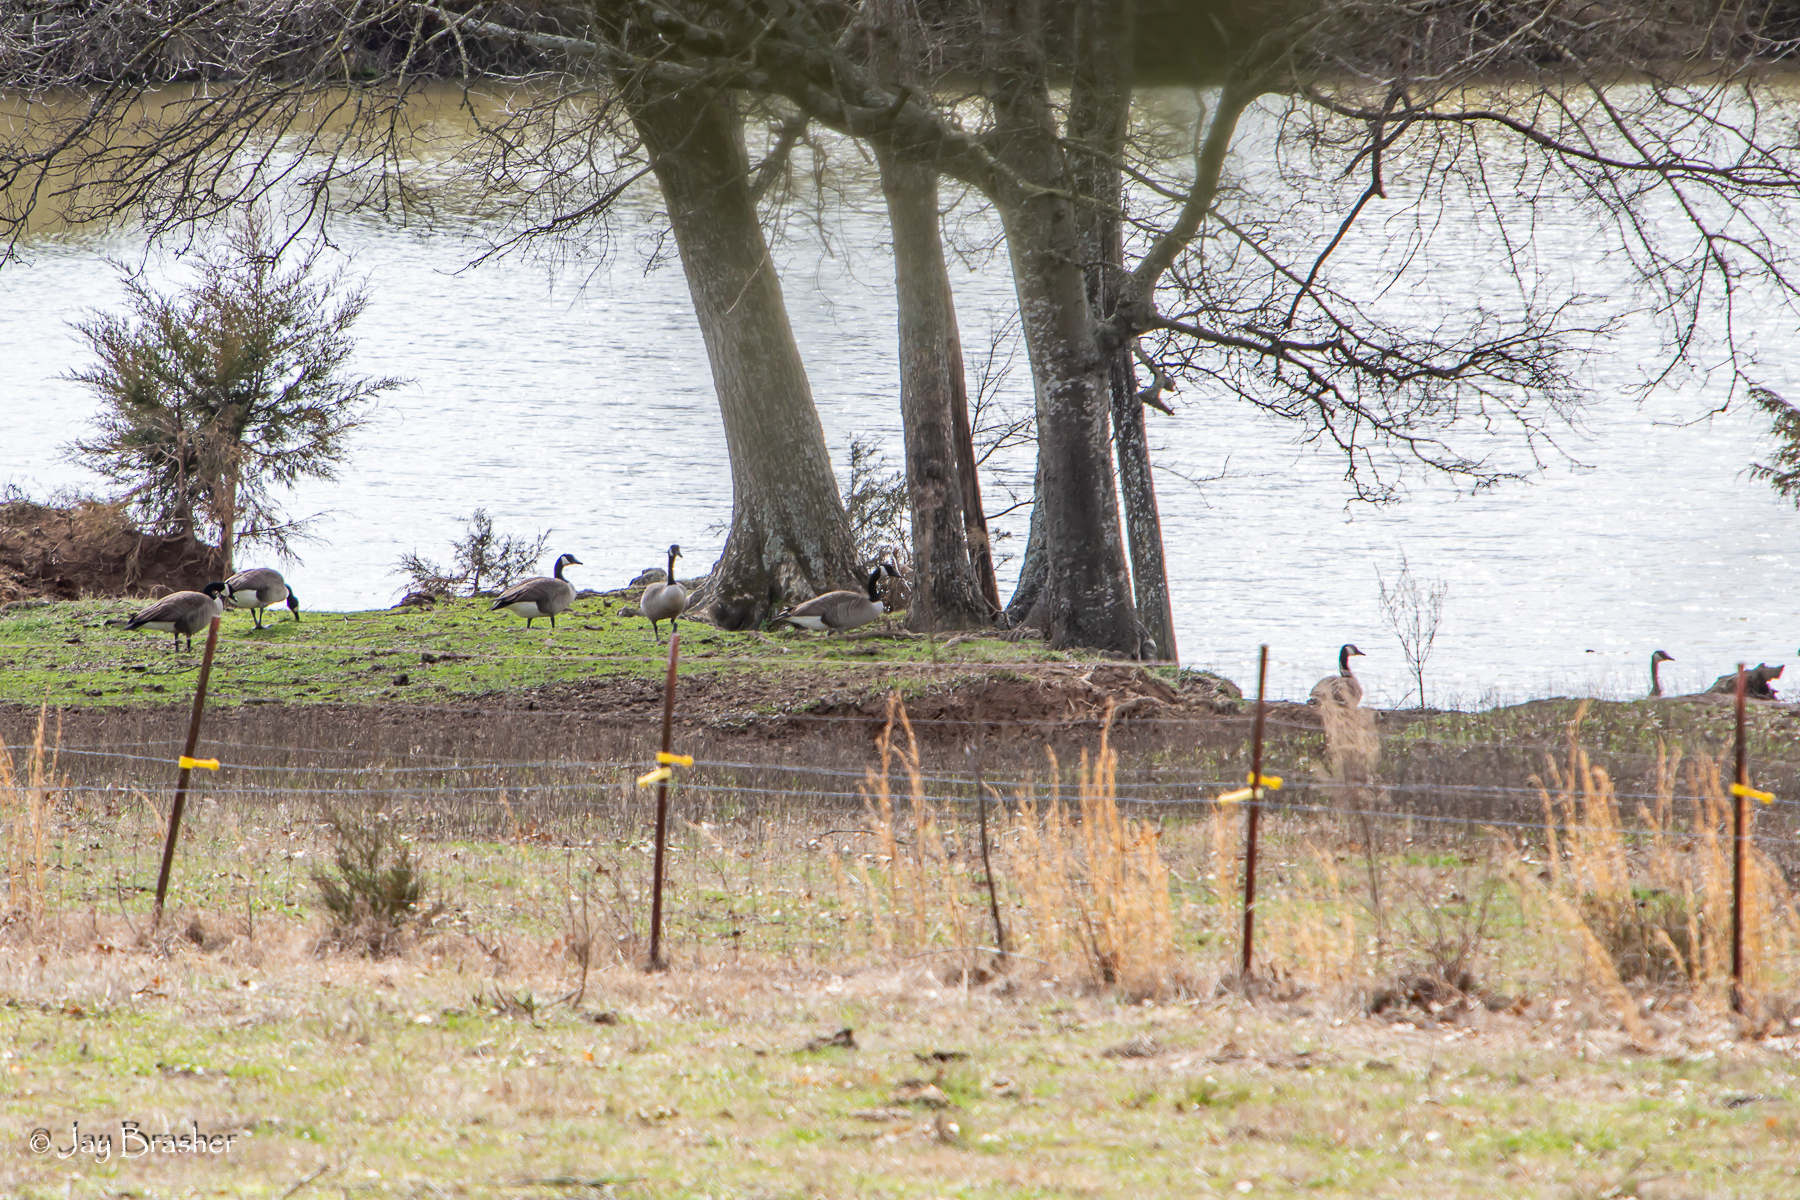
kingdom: Animalia
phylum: Chordata
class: Aves
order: Anseriformes
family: Anatidae
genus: Branta
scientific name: Branta canadensis
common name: Canada goose
